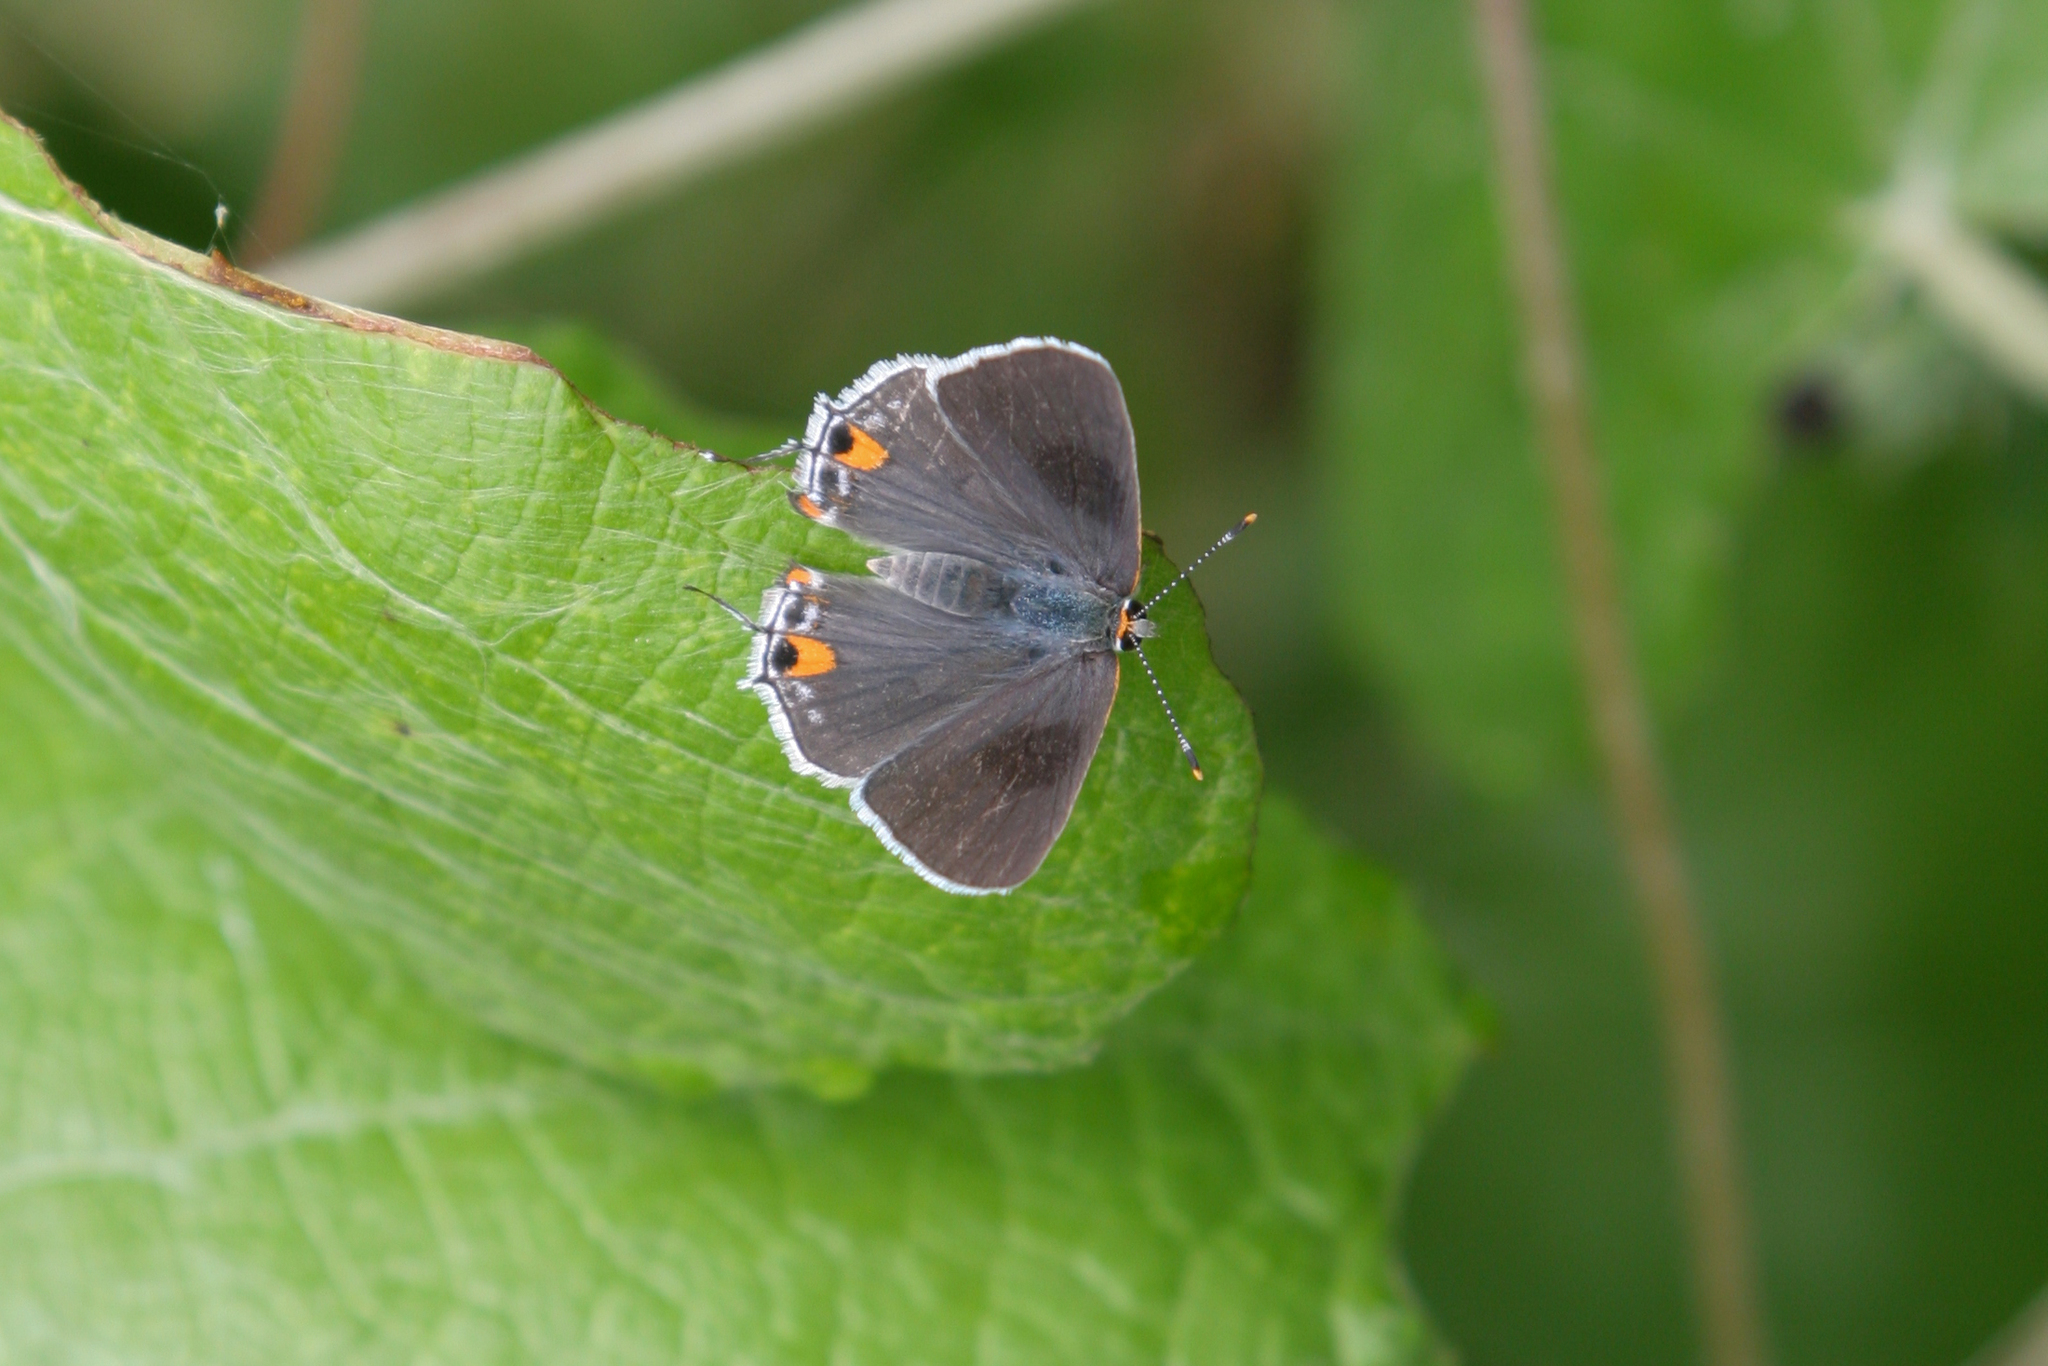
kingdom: Animalia
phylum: Arthropoda
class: Insecta
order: Lepidoptera
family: Lycaenidae
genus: Strymon
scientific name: Strymon melinus
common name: Gray hairstreak
